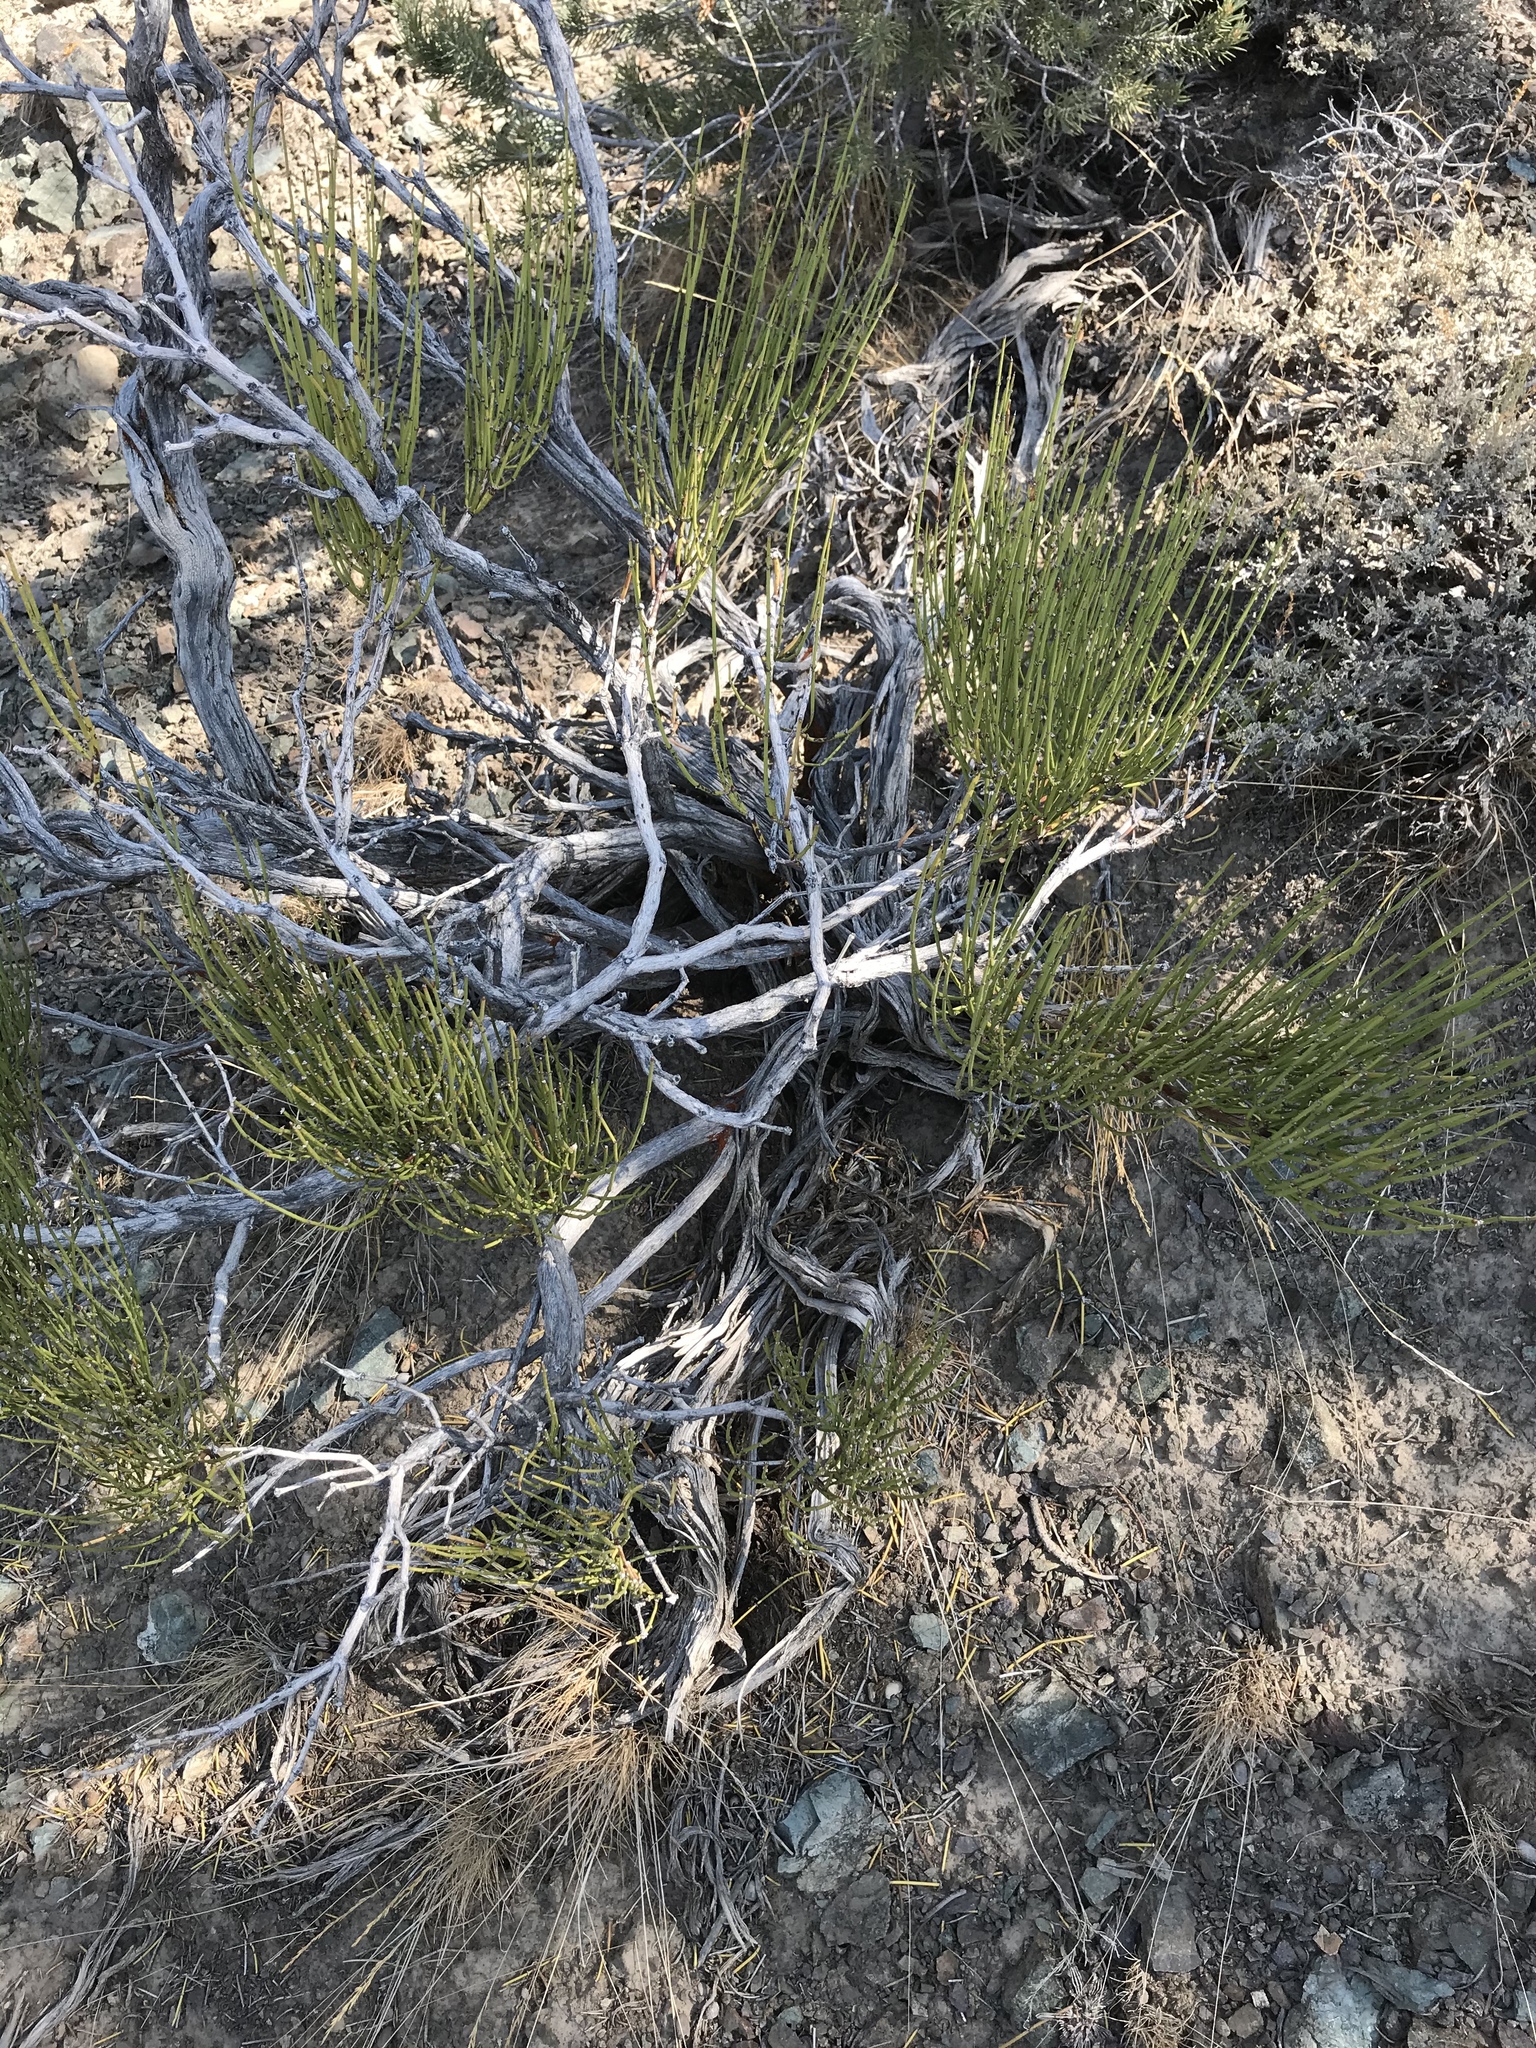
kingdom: Plantae
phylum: Tracheophyta
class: Gnetopsida
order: Ephedrales
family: Ephedraceae
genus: Ephedra
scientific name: Ephedra viridis
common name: Green ephedra
